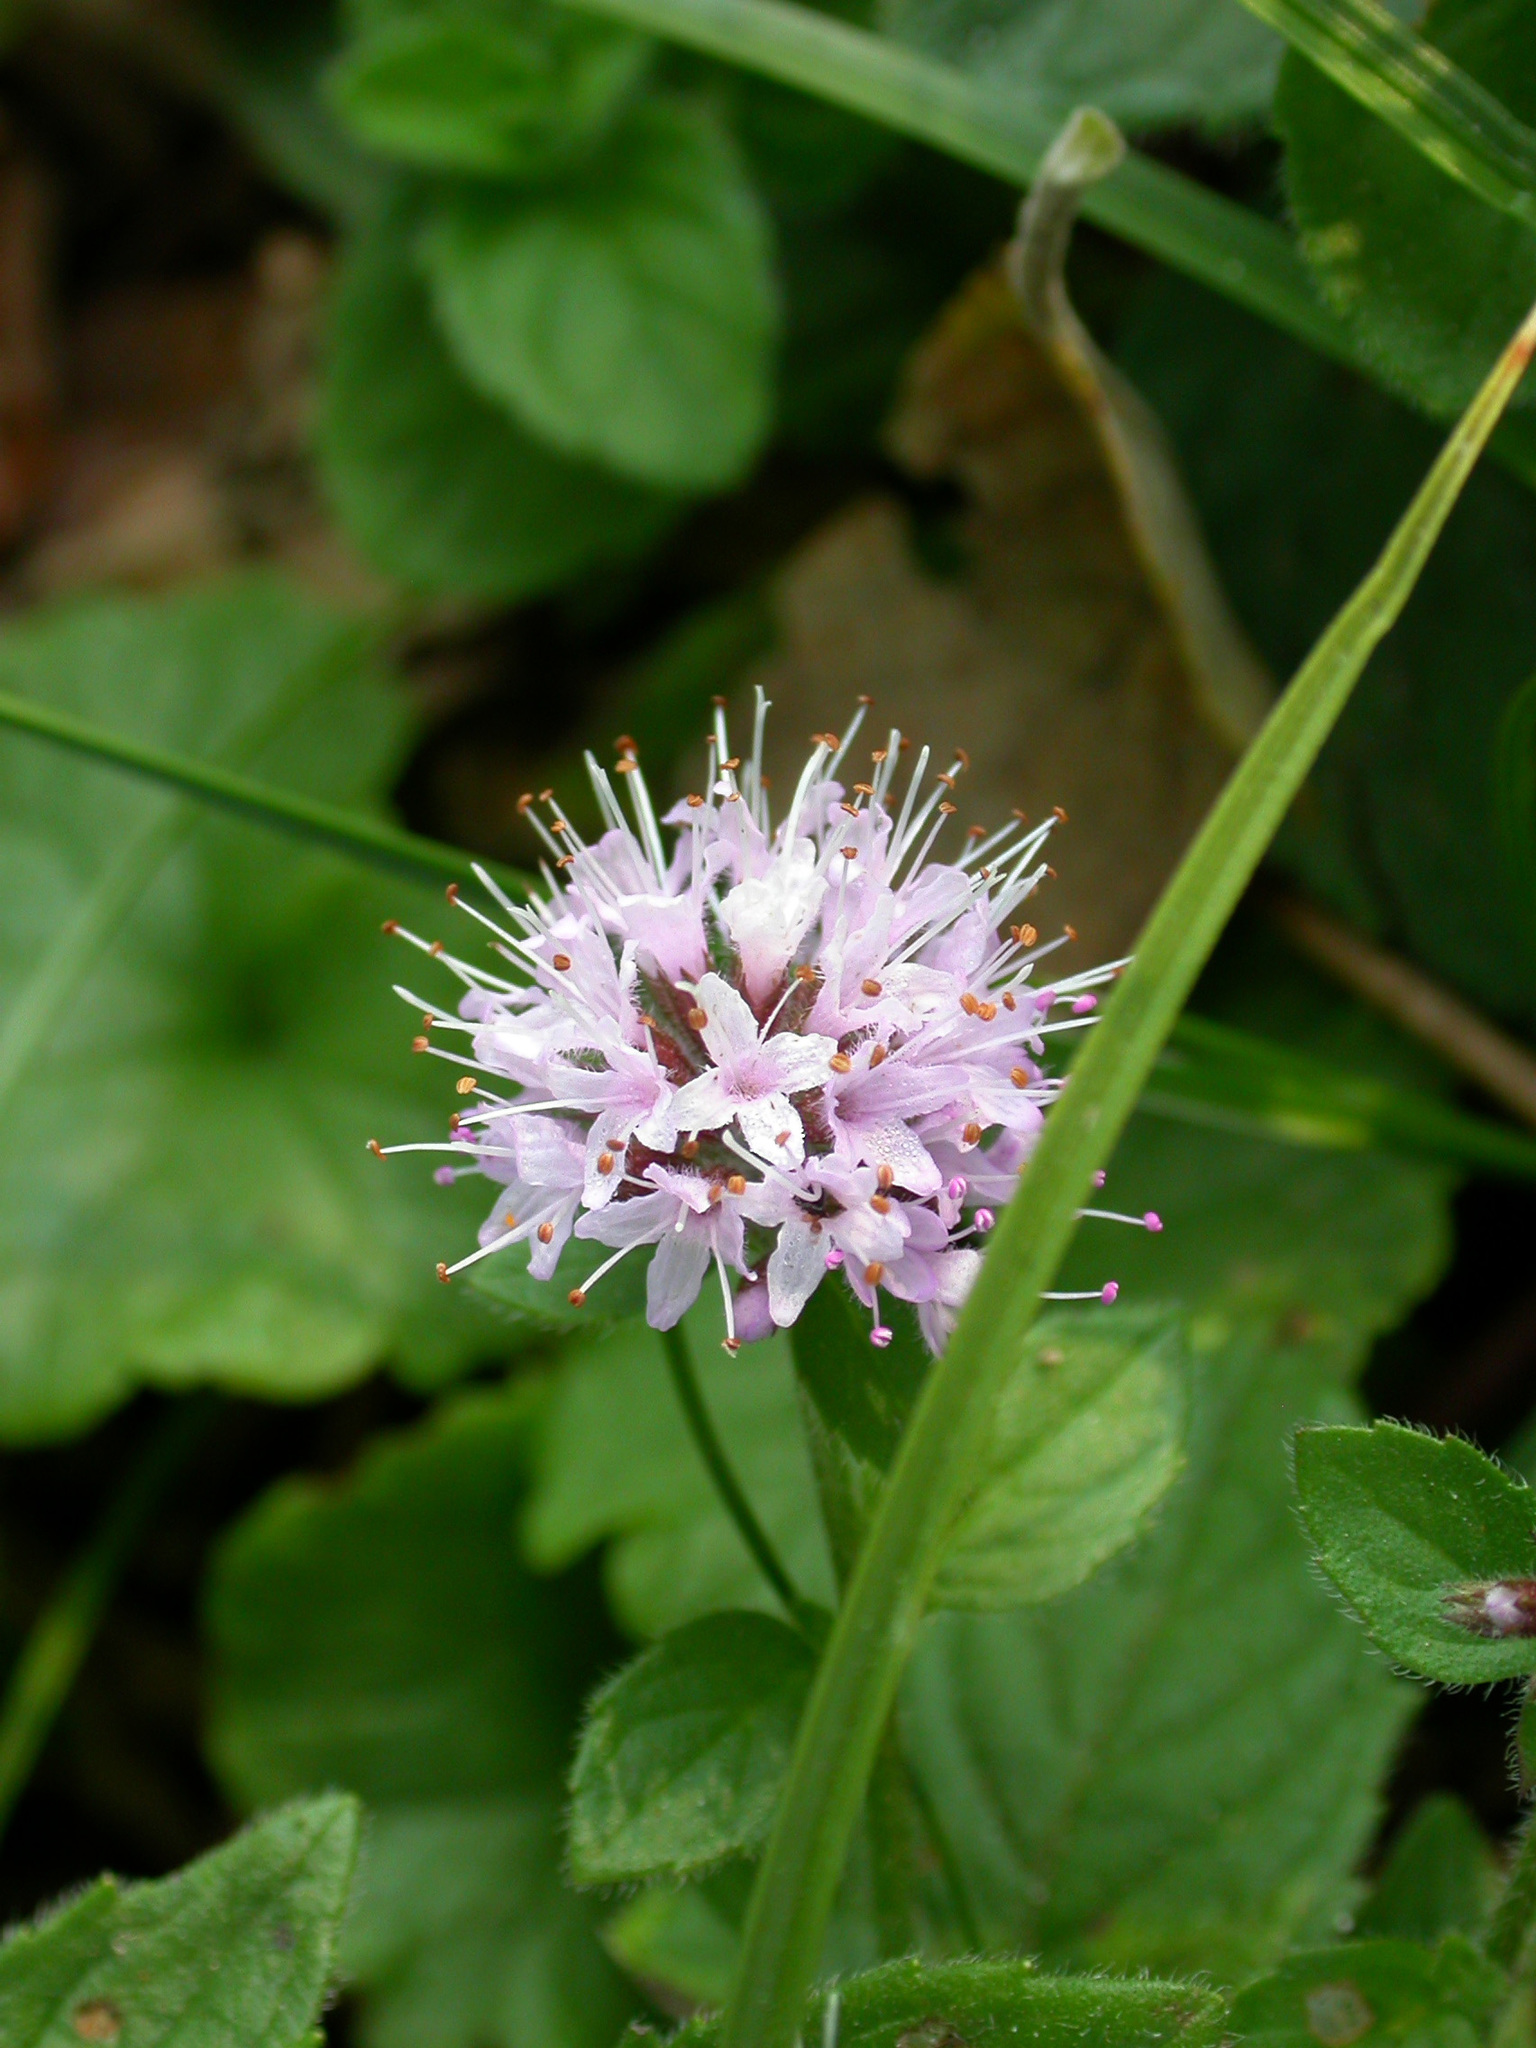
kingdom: Plantae
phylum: Tracheophyta
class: Magnoliopsida
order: Lamiales
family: Lamiaceae
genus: Mentha
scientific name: Mentha aquatica
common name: Water mint
